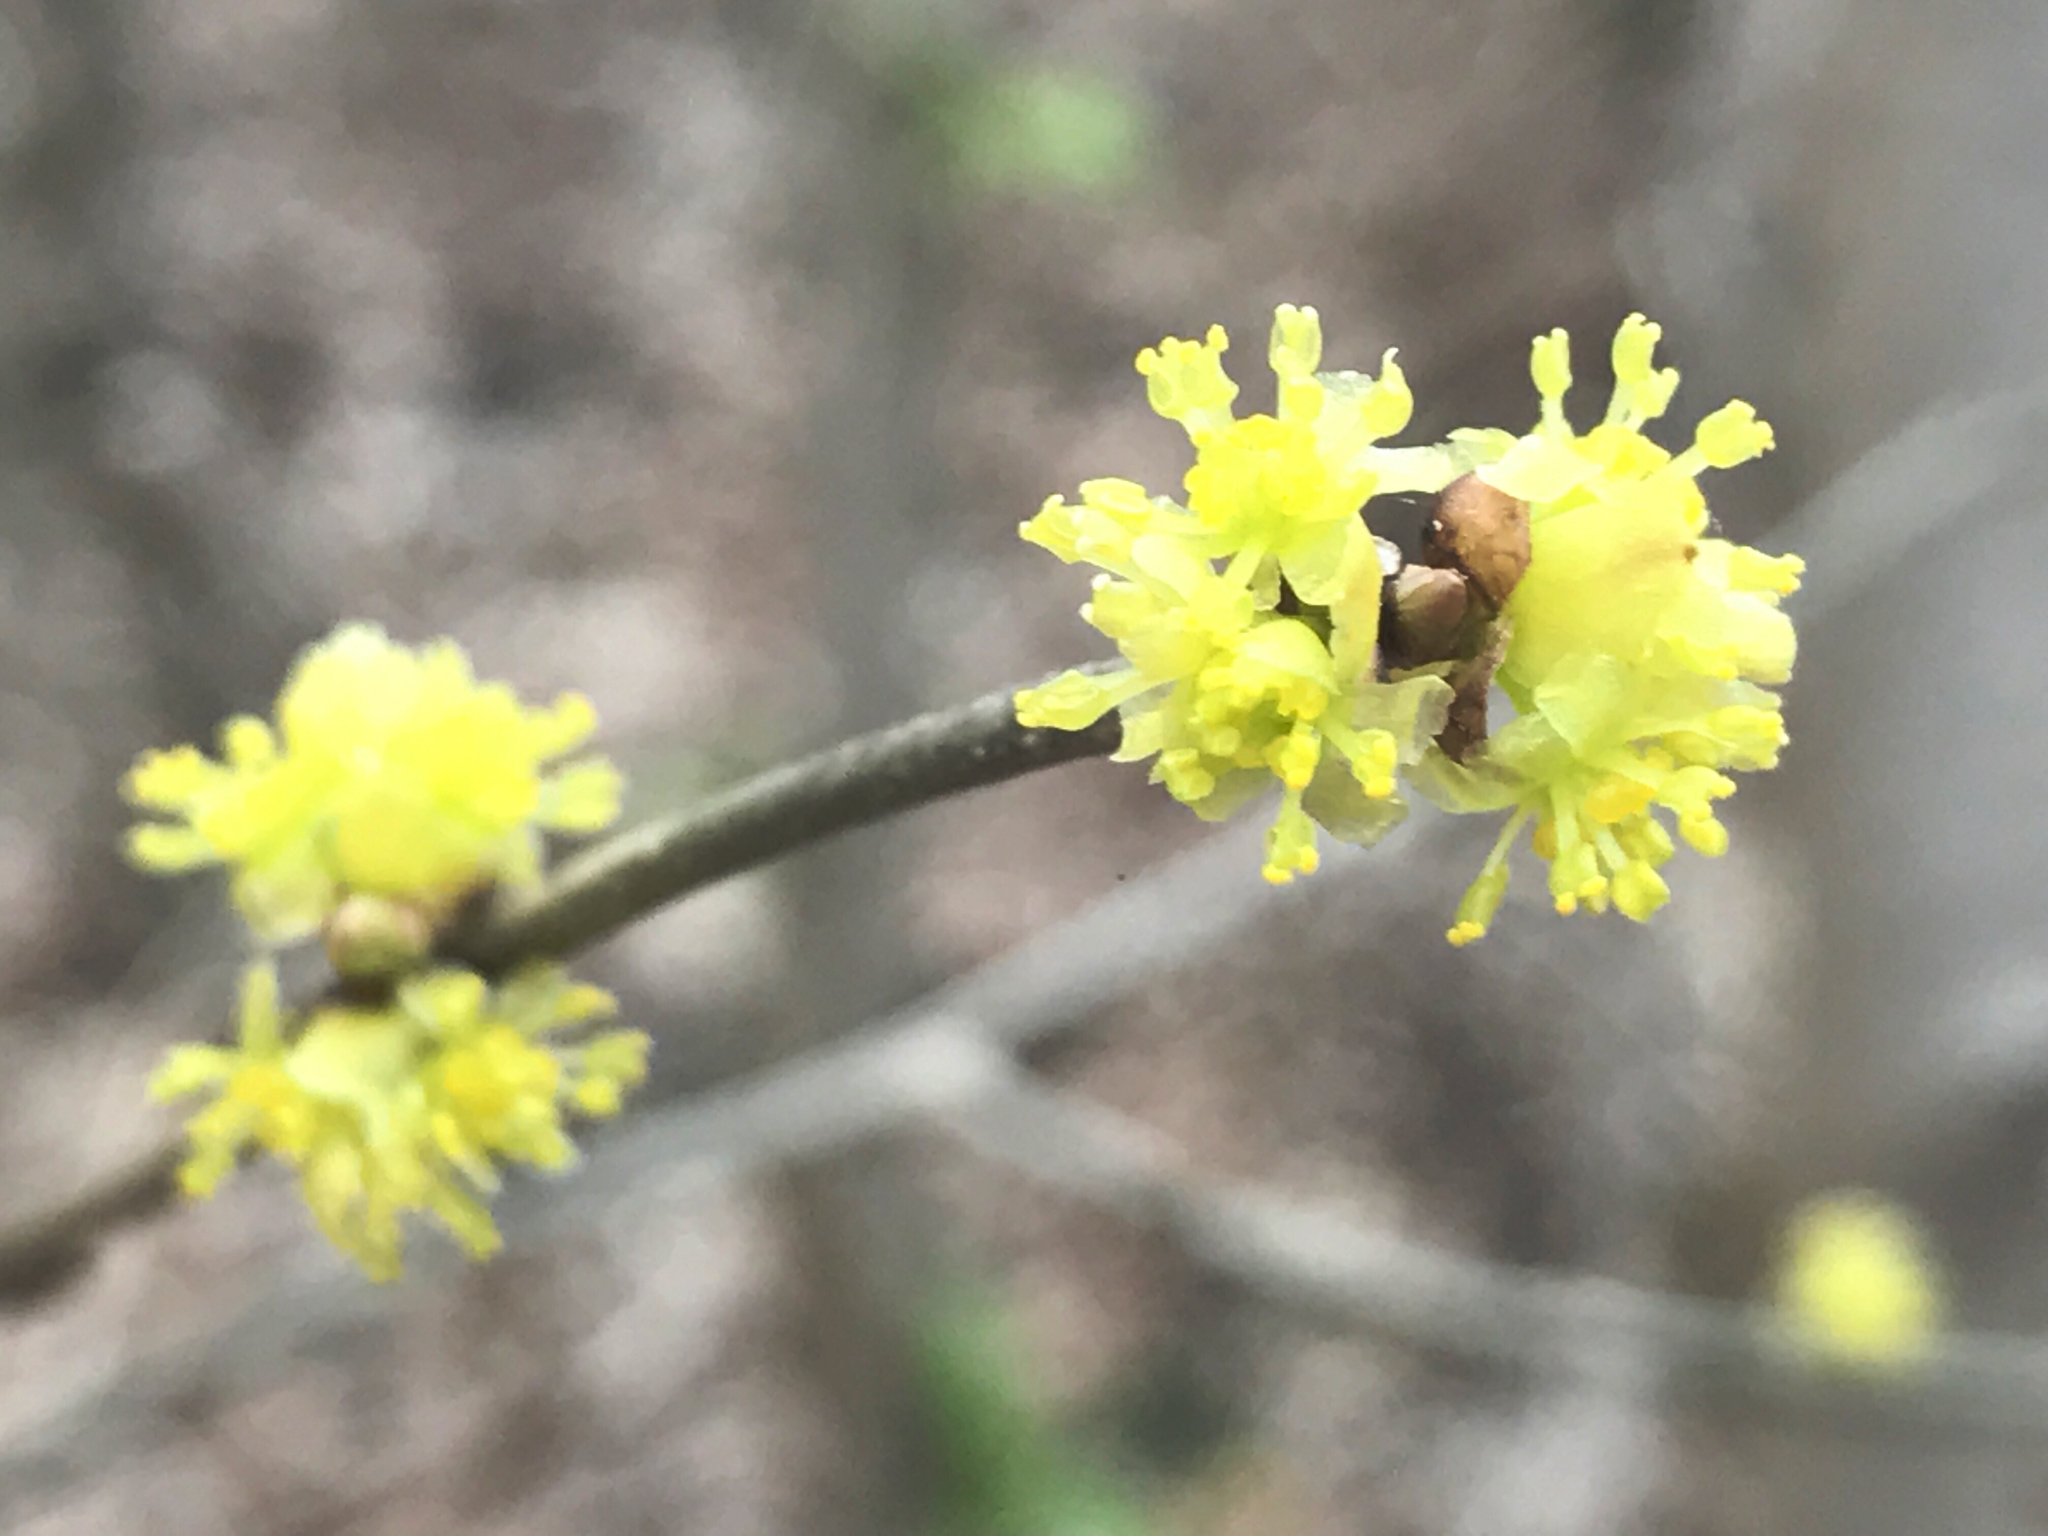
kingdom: Plantae
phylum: Tracheophyta
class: Magnoliopsida
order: Laurales
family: Lauraceae
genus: Lindera
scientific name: Lindera benzoin
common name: Spicebush
